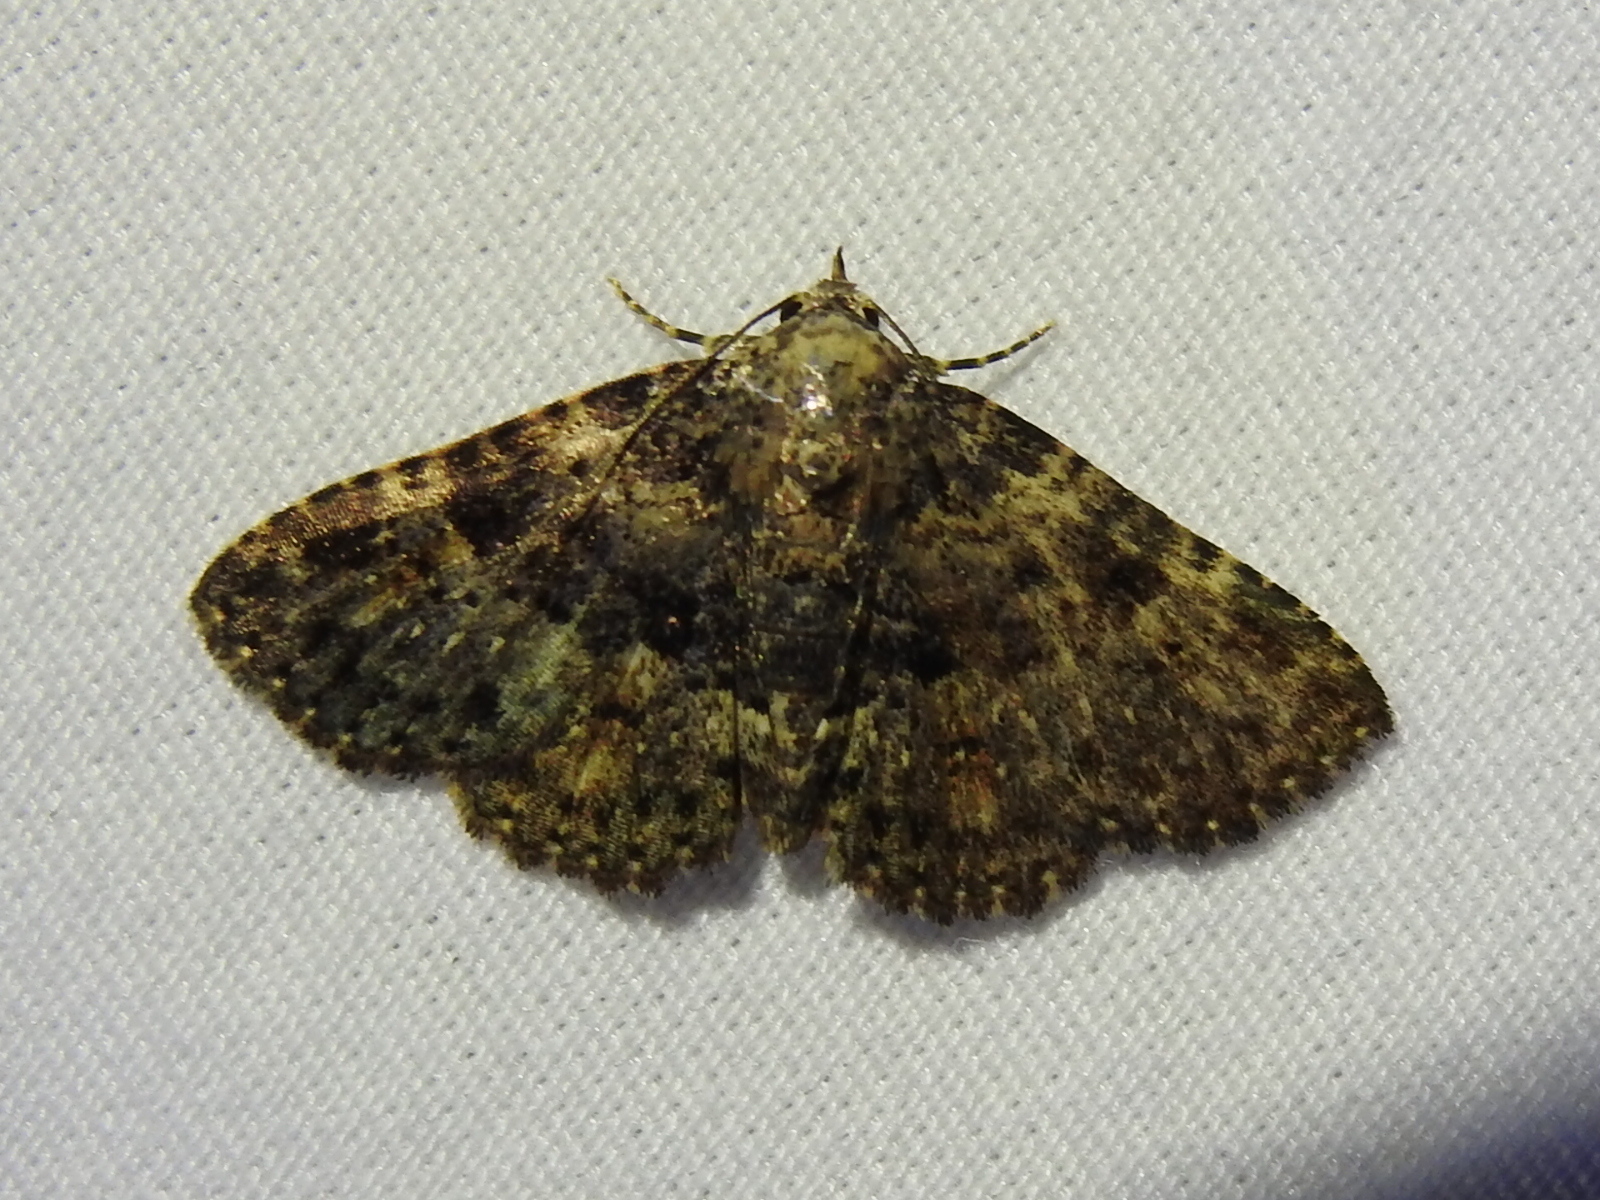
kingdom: Animalia
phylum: Arthropoda
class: Insecta
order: Lepidoptera
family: Erebidae
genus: Metalectra
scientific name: Metalectra discalis
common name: Common fungus moth
